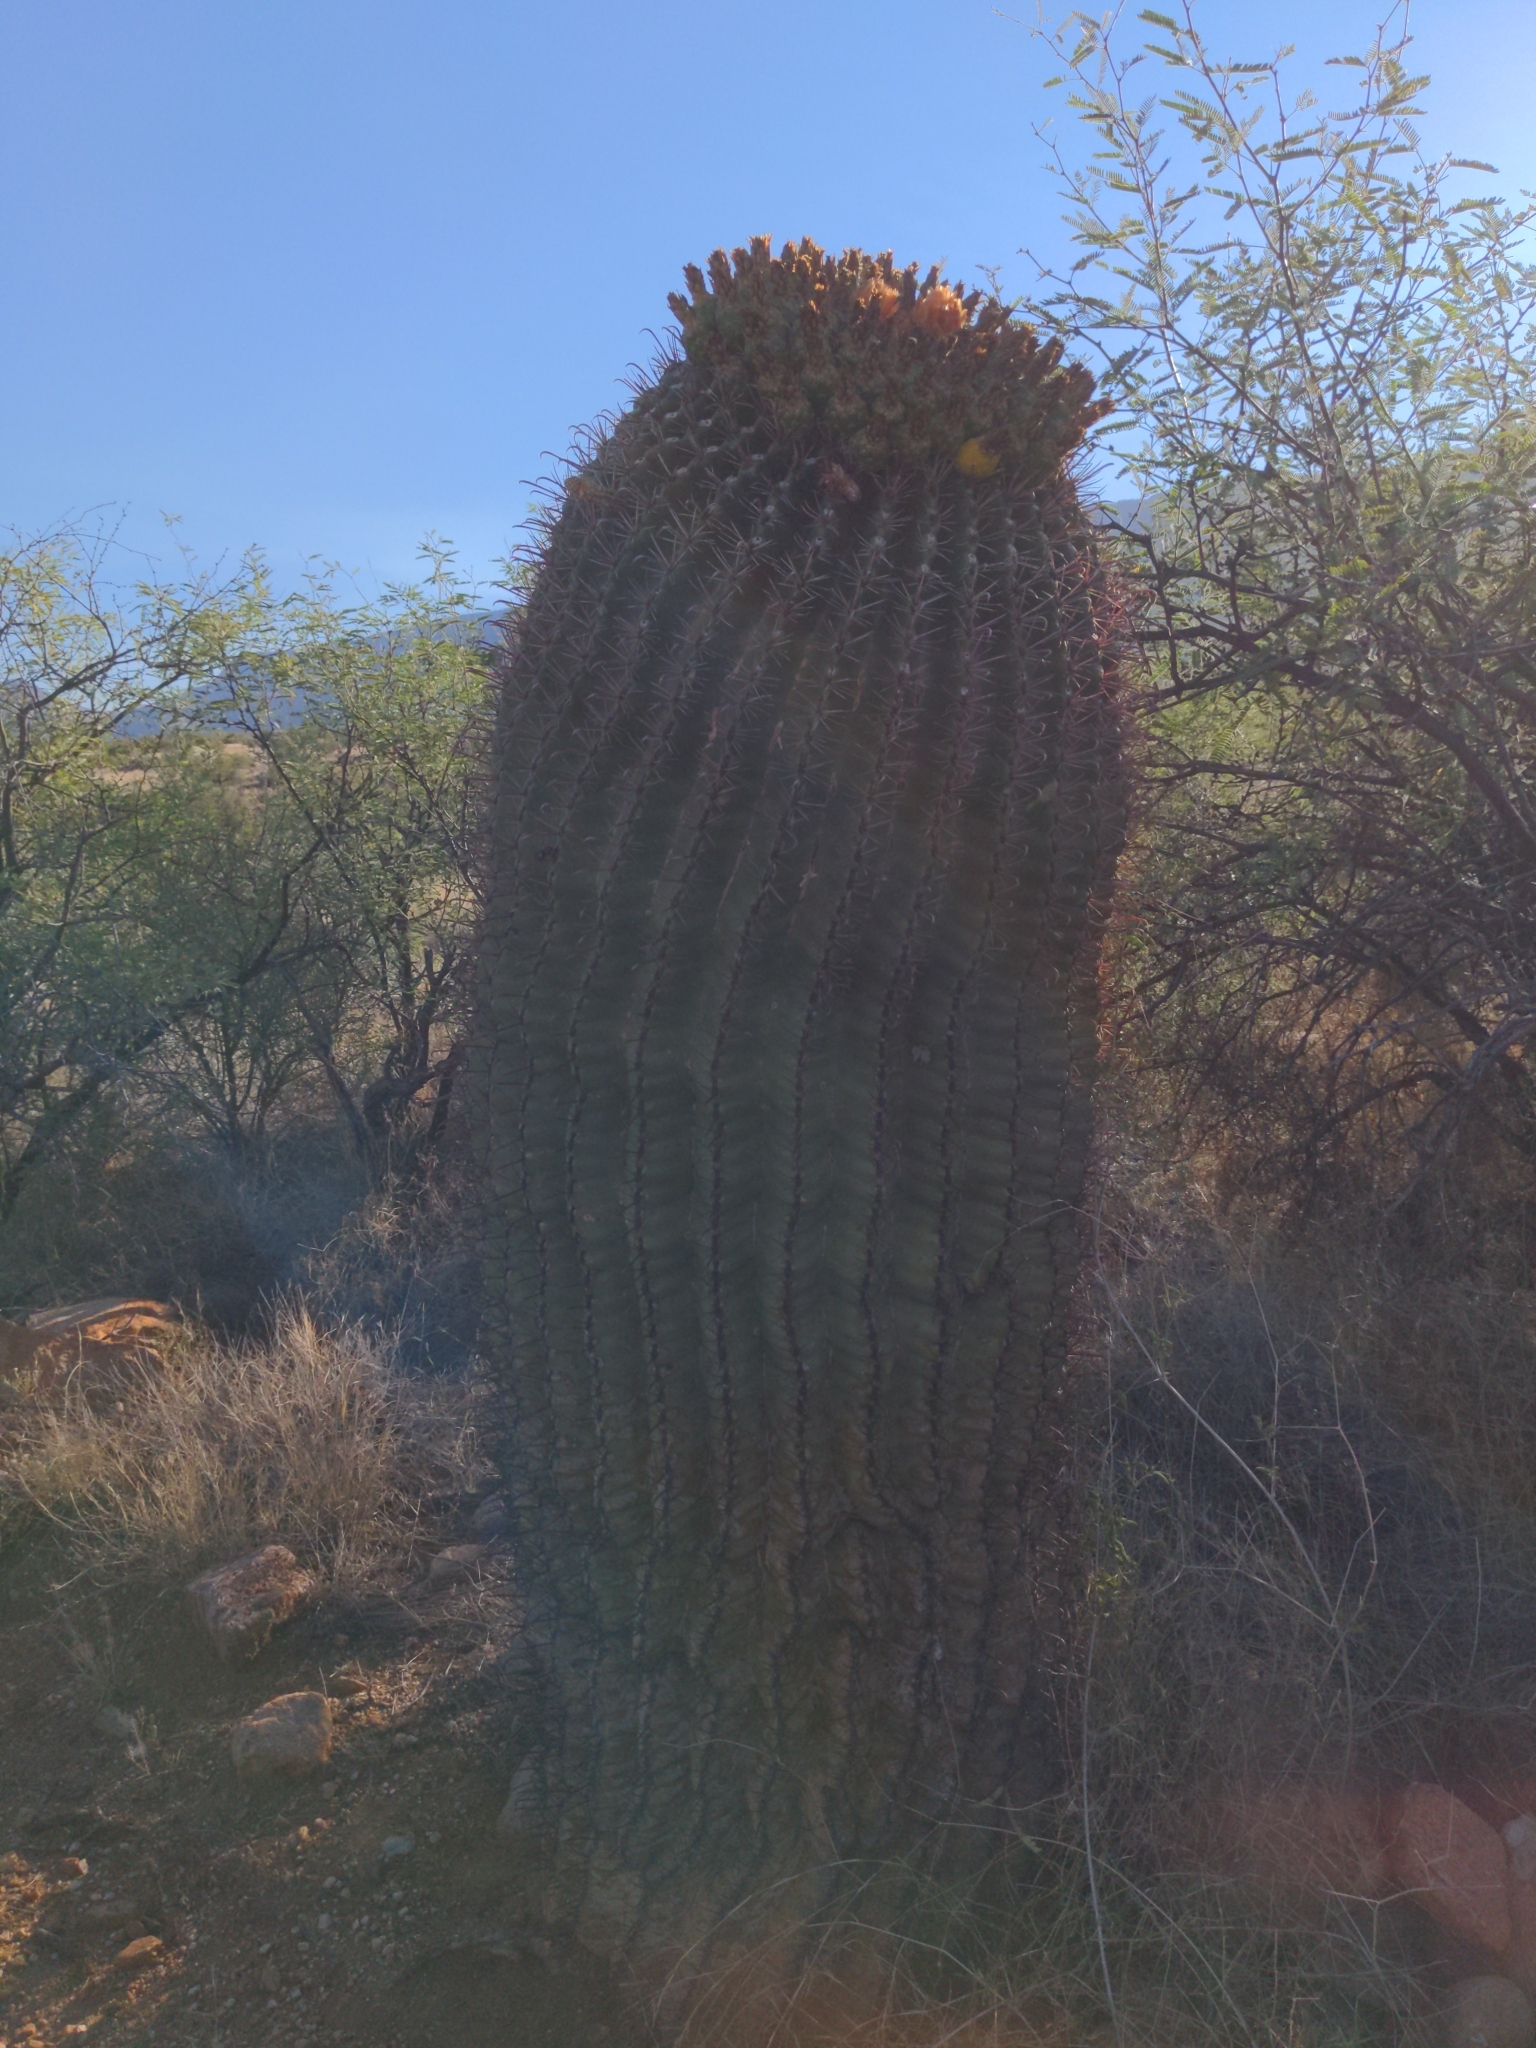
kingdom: Plantae
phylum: Tracheophyta
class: Magnoliopsida
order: Caryophyllales
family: Cactaceae
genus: Ferocactus
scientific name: Ferocactus wislizeni
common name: Candy barrel cactus
